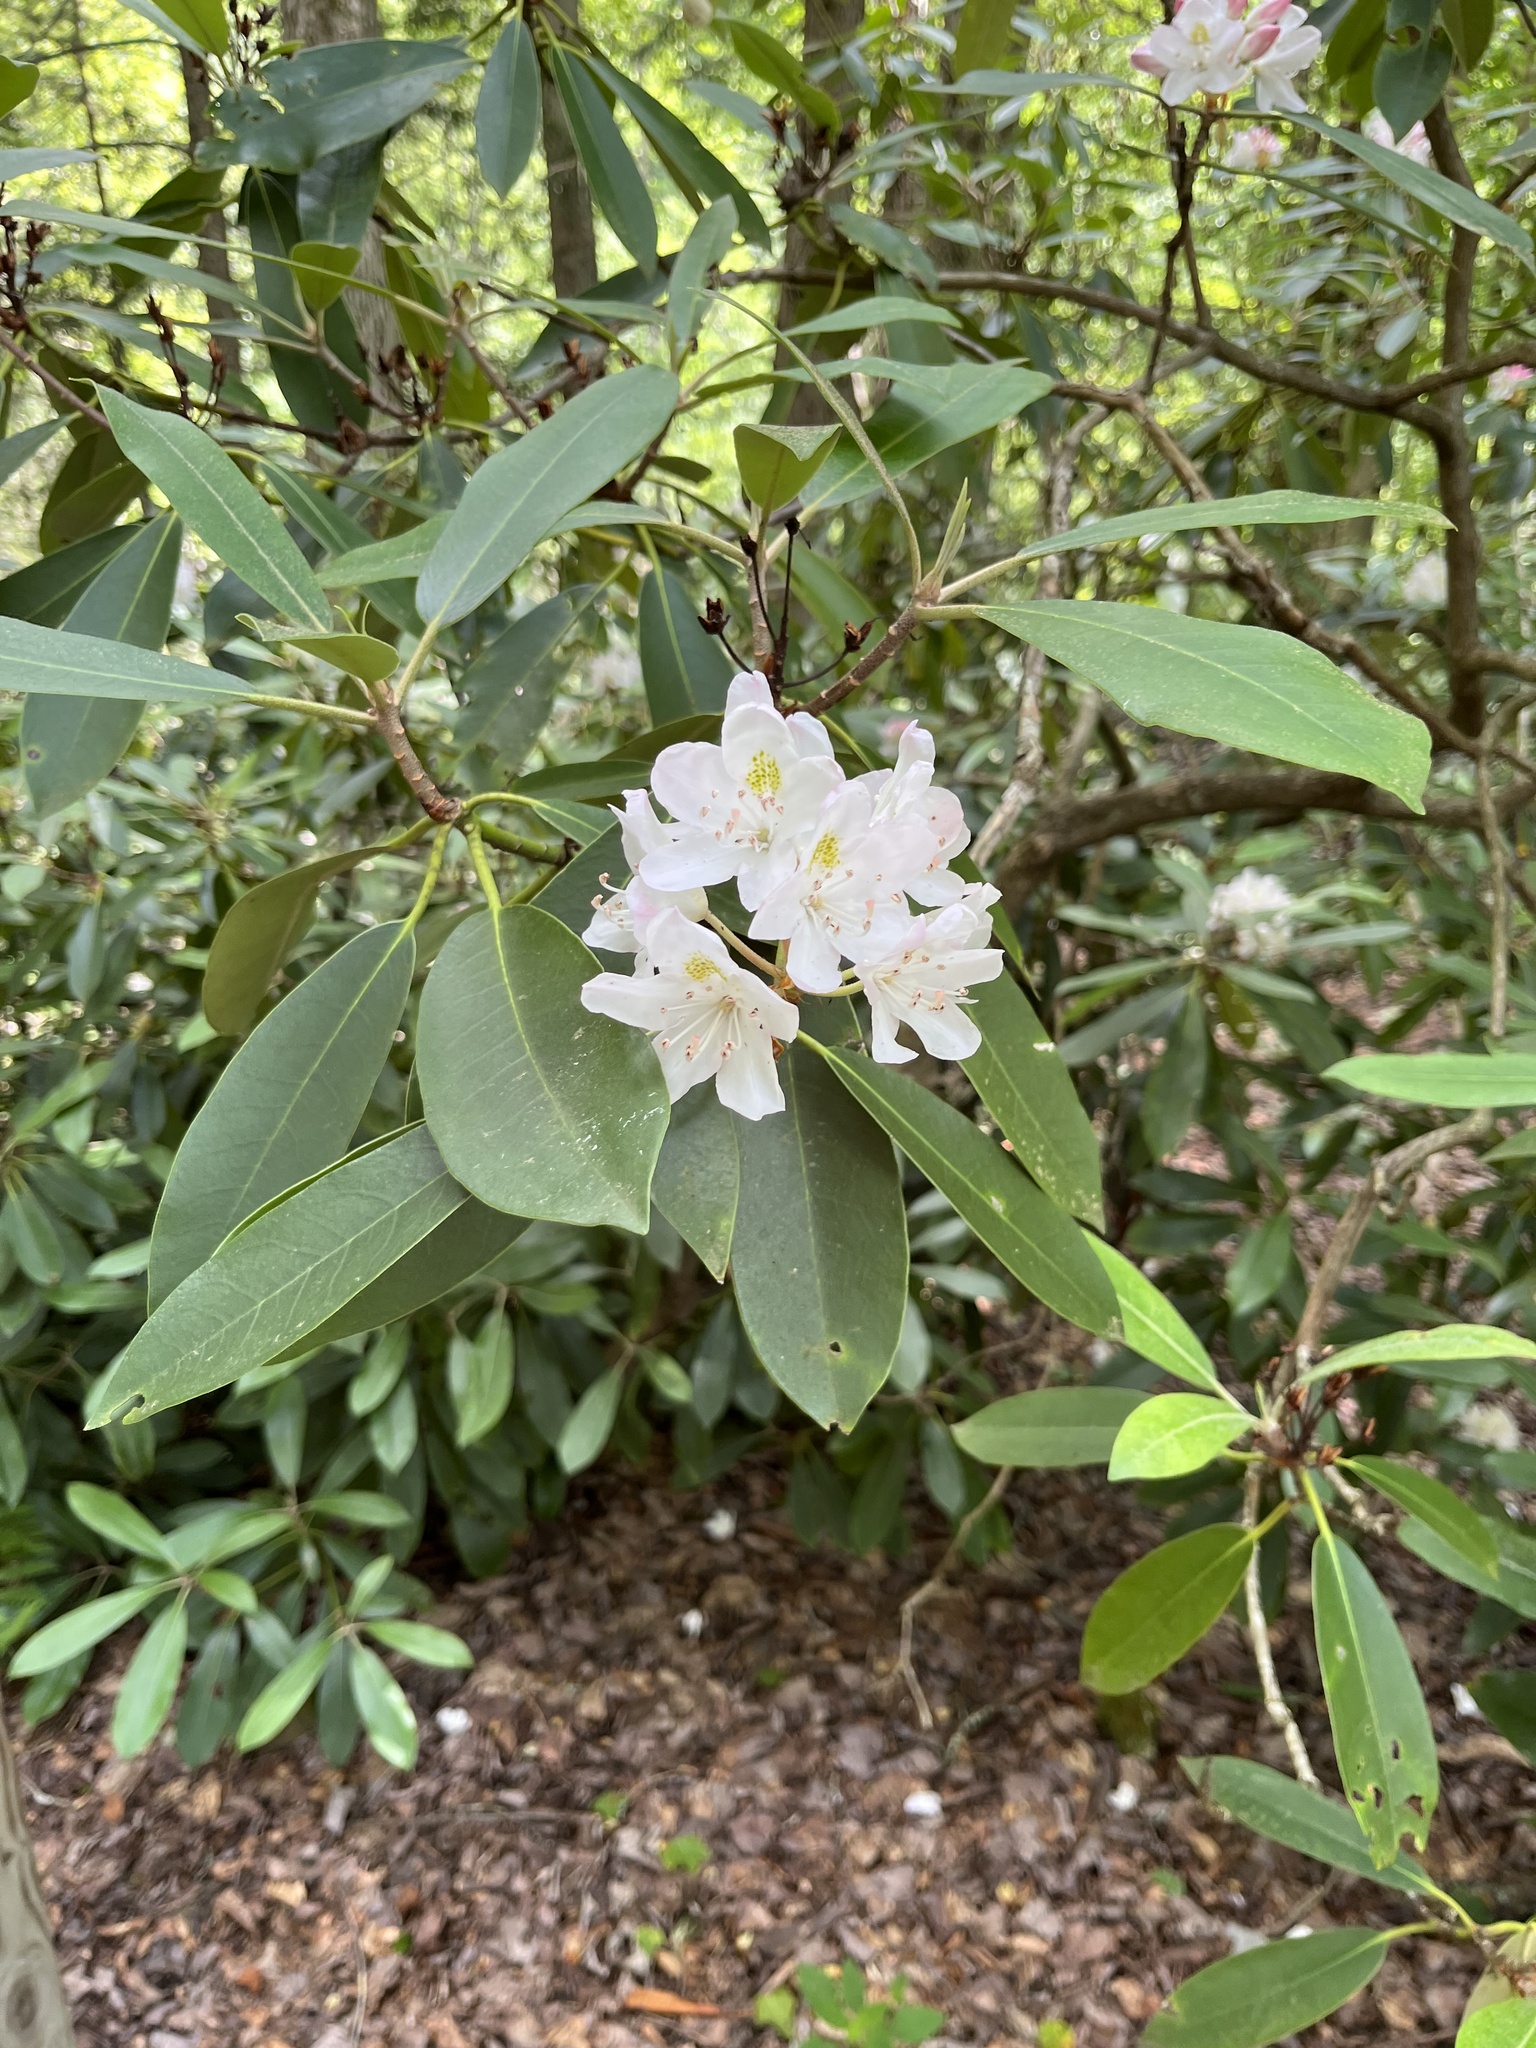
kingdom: Plantae
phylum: Tracheophyta
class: Magnoliopsida
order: Ericales
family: Ericaceae
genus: Rhododendron
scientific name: Rhododendron maximum
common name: Great rhododendron
